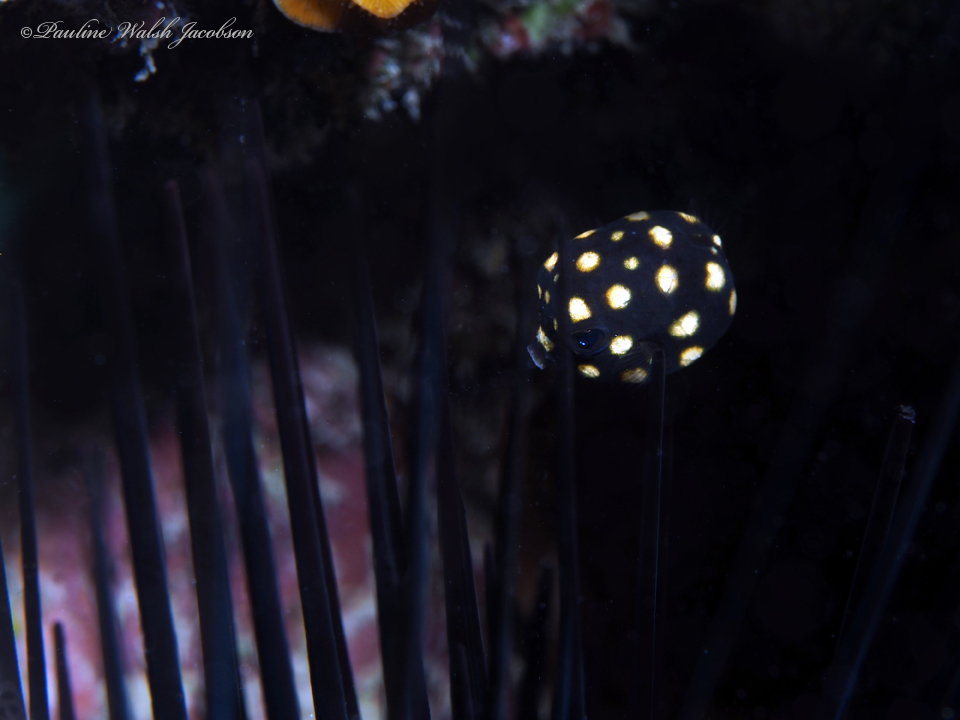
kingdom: Animalia
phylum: Chordata
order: Tetraodontiformes
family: Ostraciidae
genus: Lactophrys
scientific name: Lactophrys triqueter
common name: Smooth trunkfish
